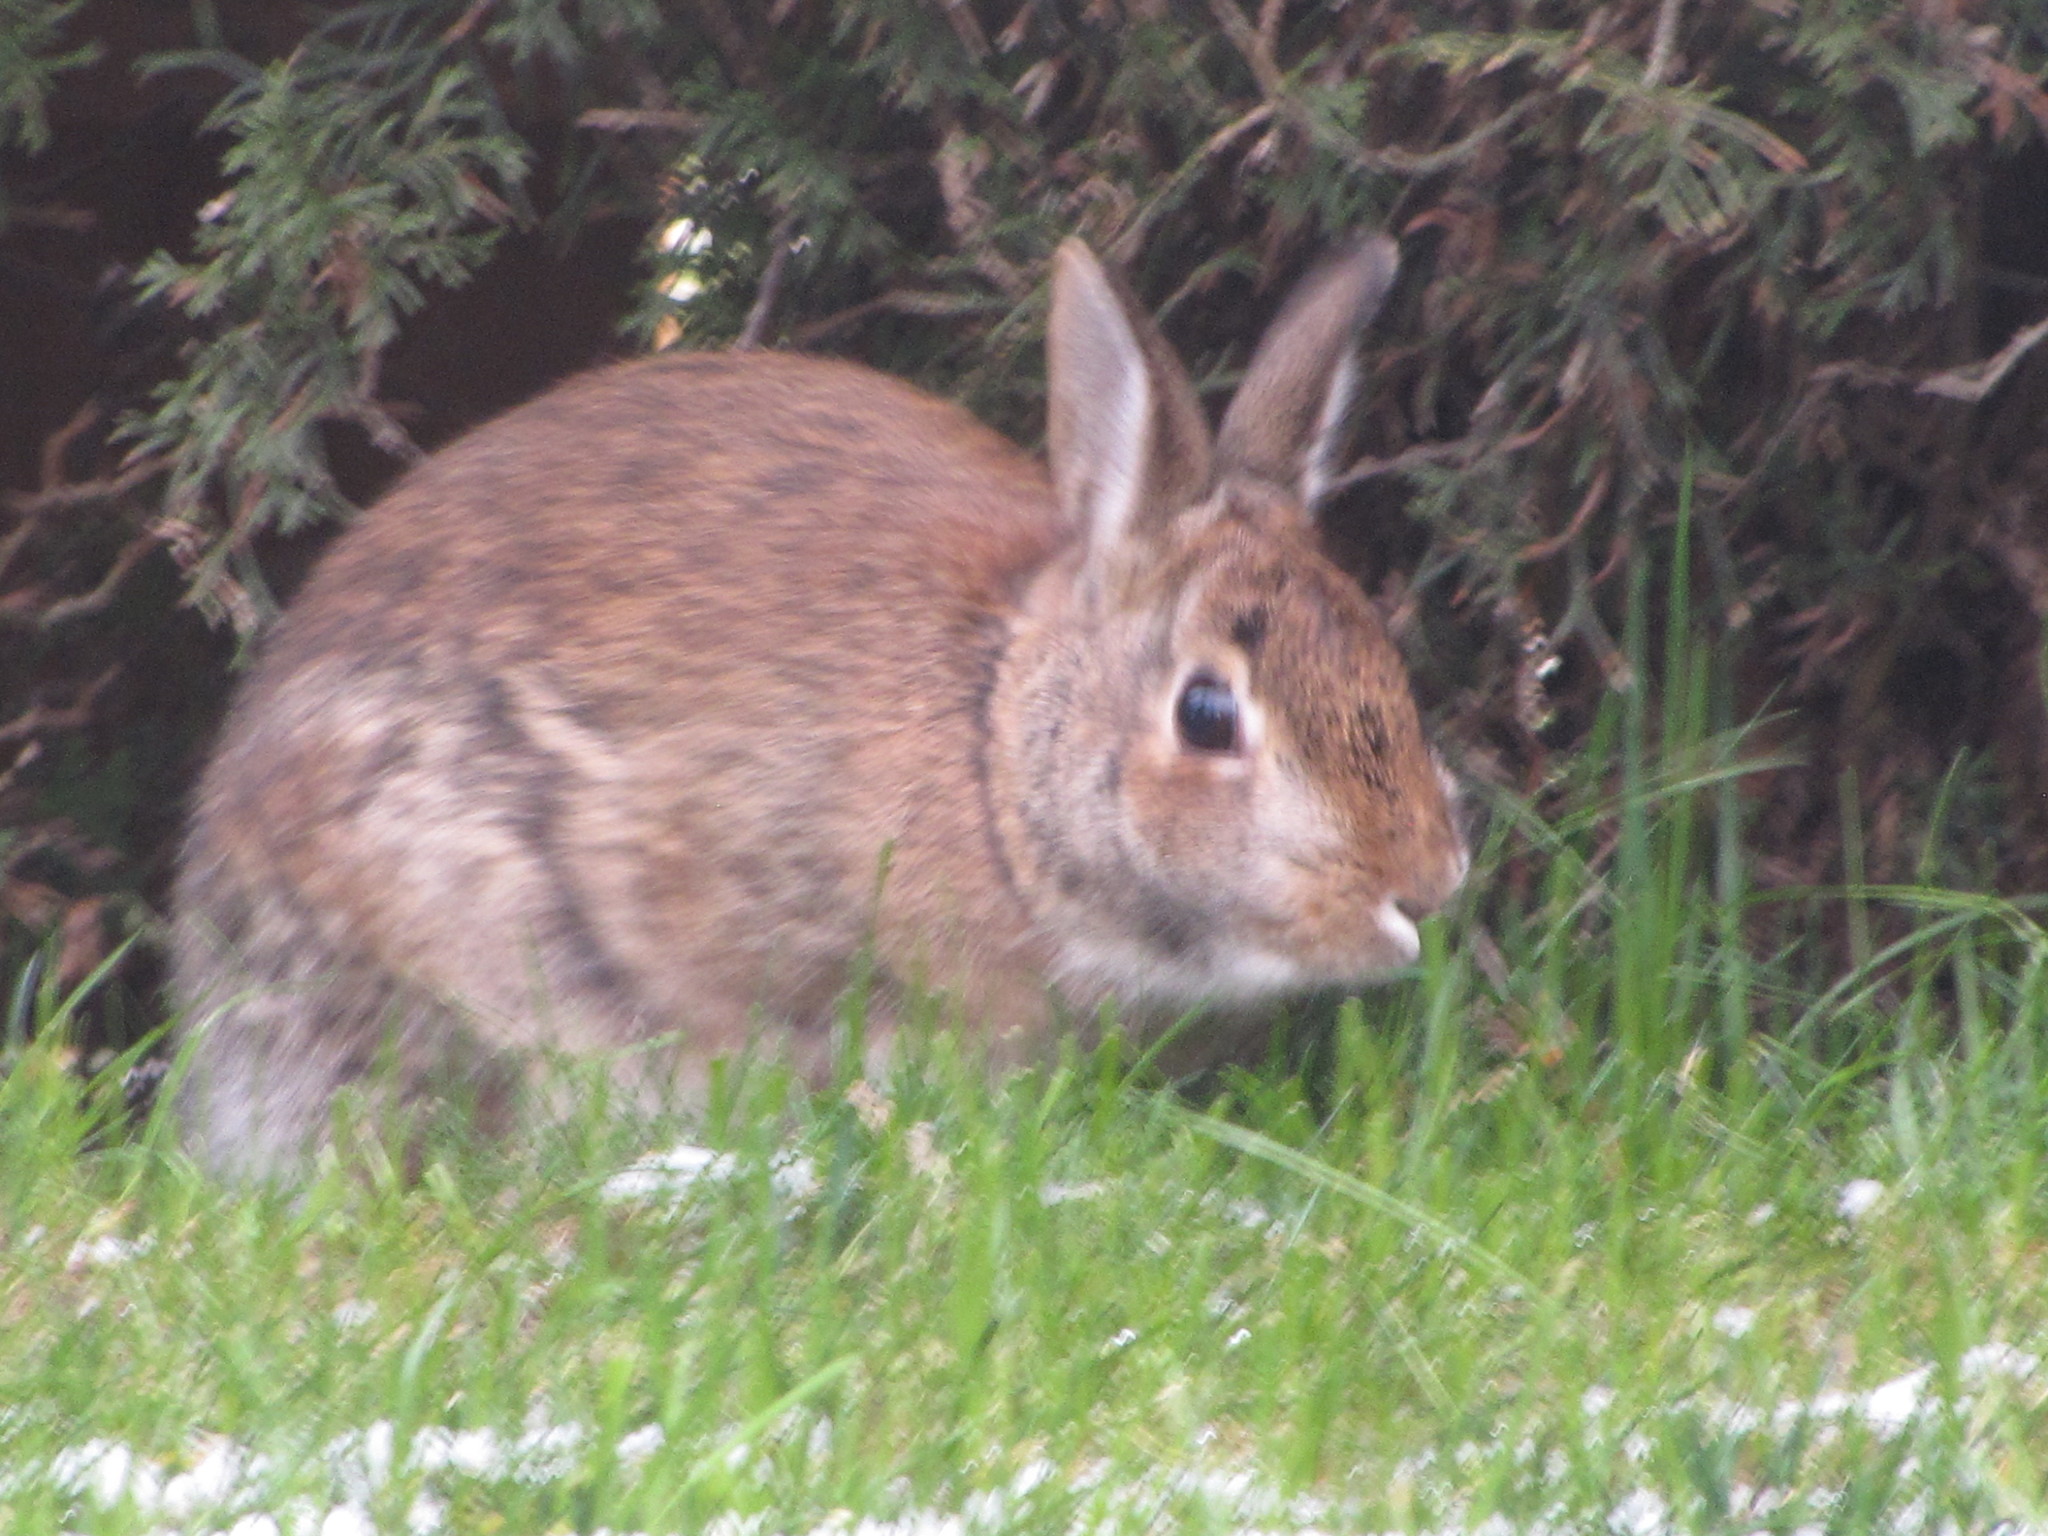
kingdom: Animalia
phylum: Chordata
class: Mammalia
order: Lagomorpha
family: Leporidae
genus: Sylvilagus
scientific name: Sylvilagus floridanus
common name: Eastern cottontail
